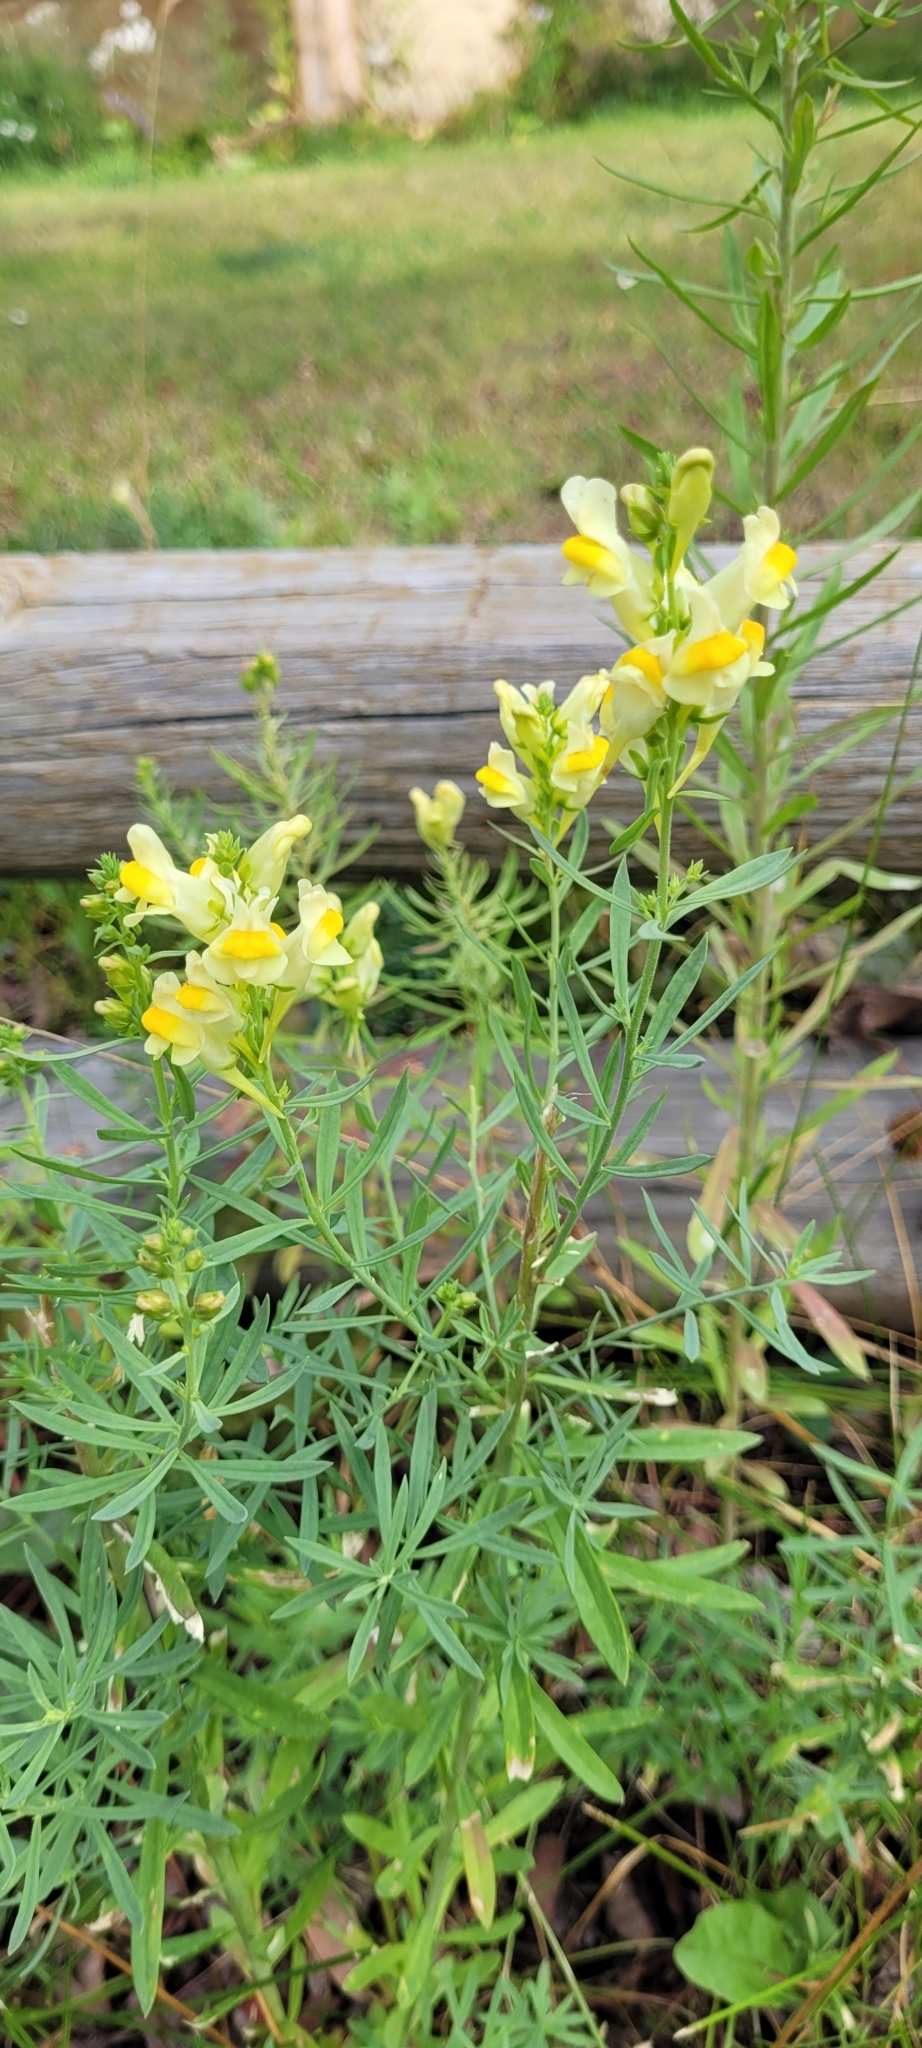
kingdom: Plantae
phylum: Tracheophyta
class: Magnoliopsida
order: Lamiales
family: Plantaginaceae
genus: Linaria
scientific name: Linaria vulgaris
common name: Butter and eggs
